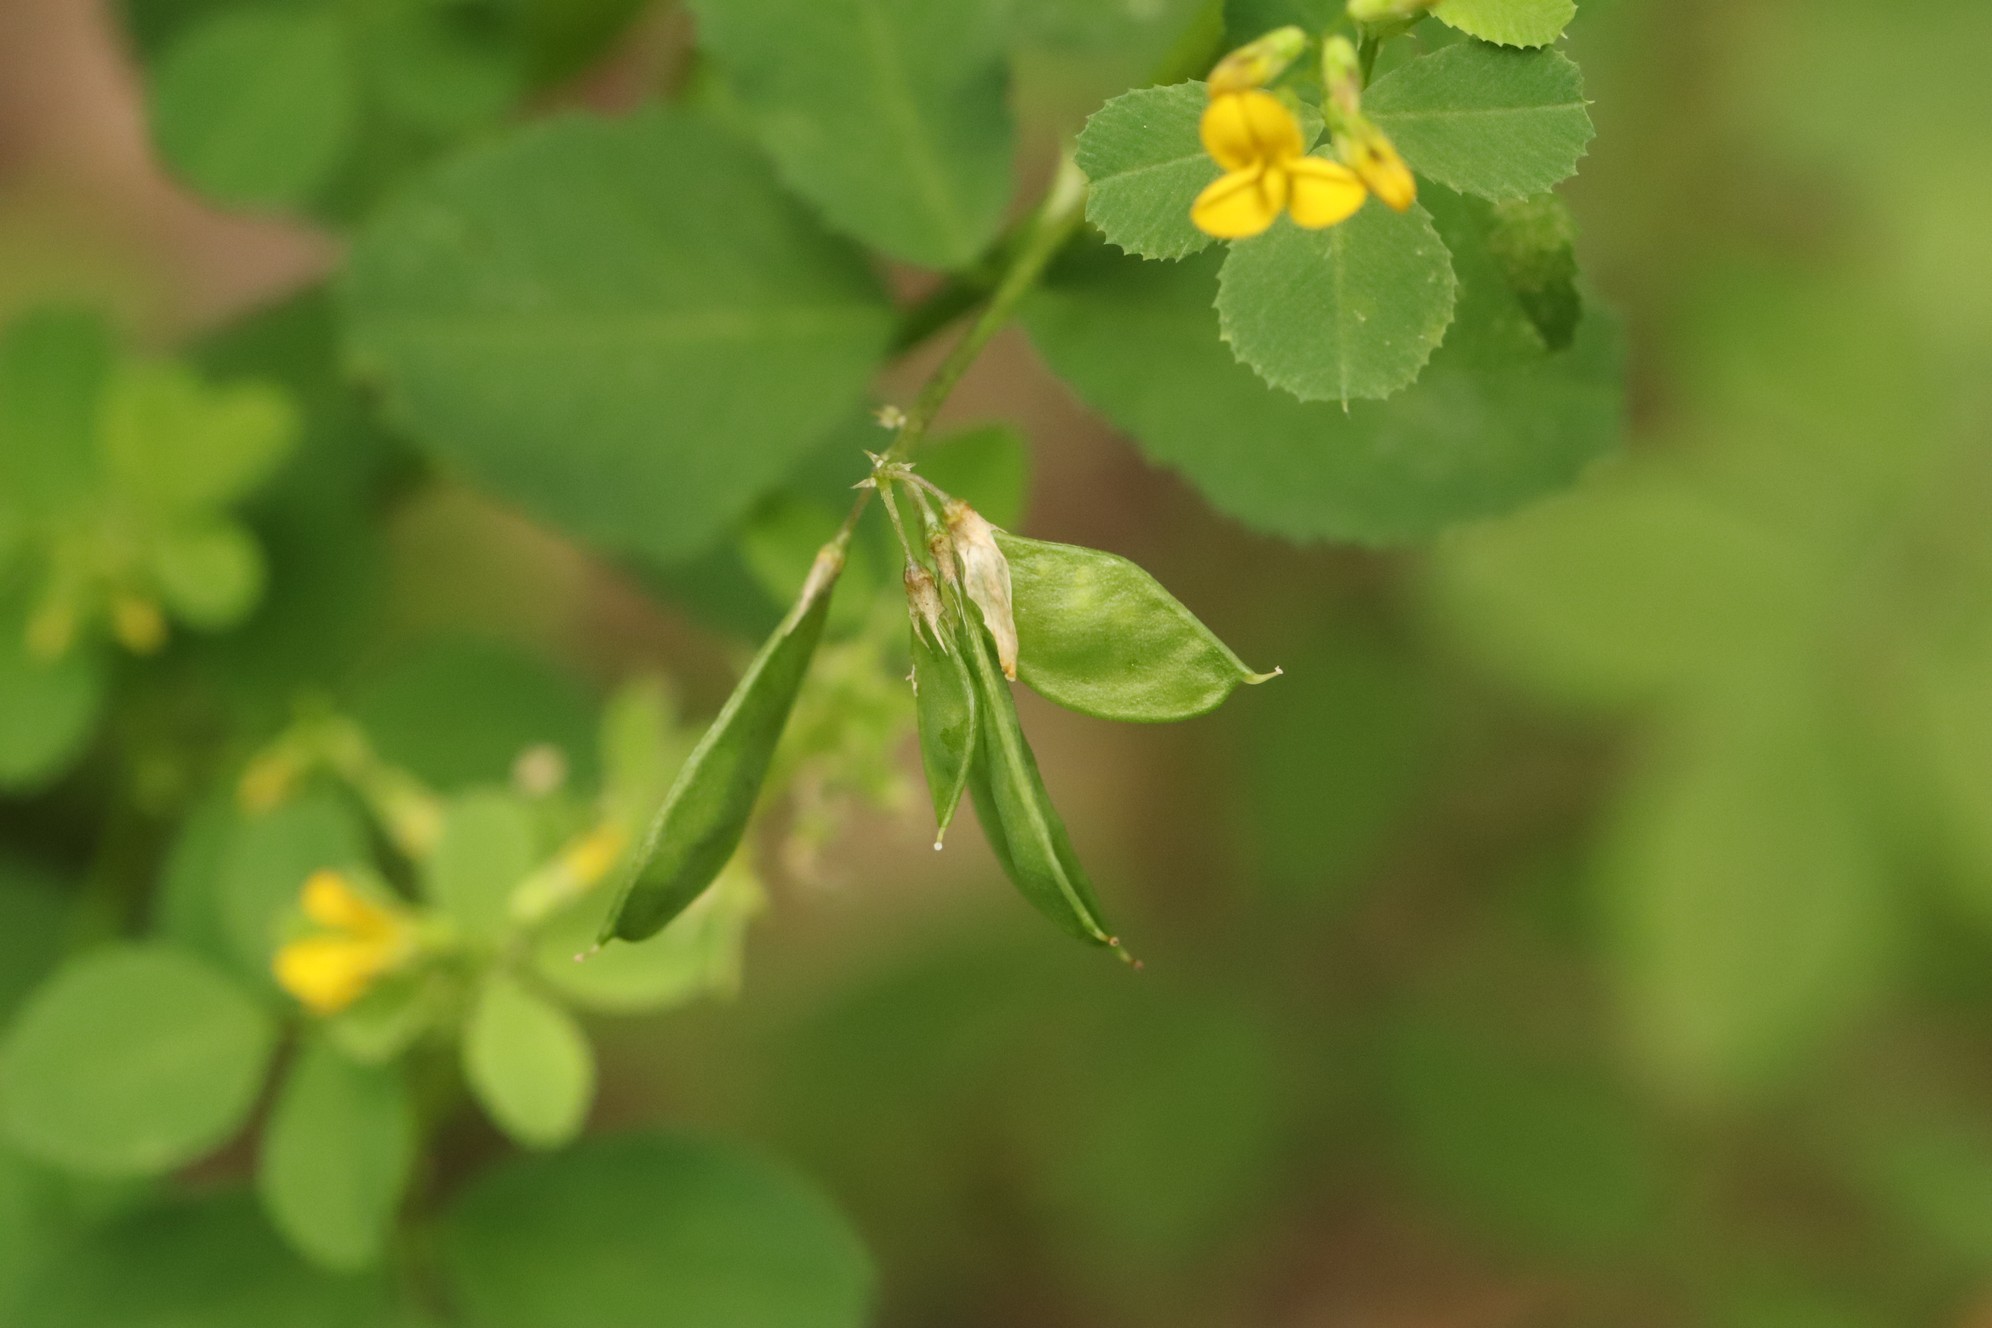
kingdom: Plantae
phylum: Tracheophyta
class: Magnoliopsida
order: Fabales
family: Fabaceae
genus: Medicago
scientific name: Medicago platycarpos
